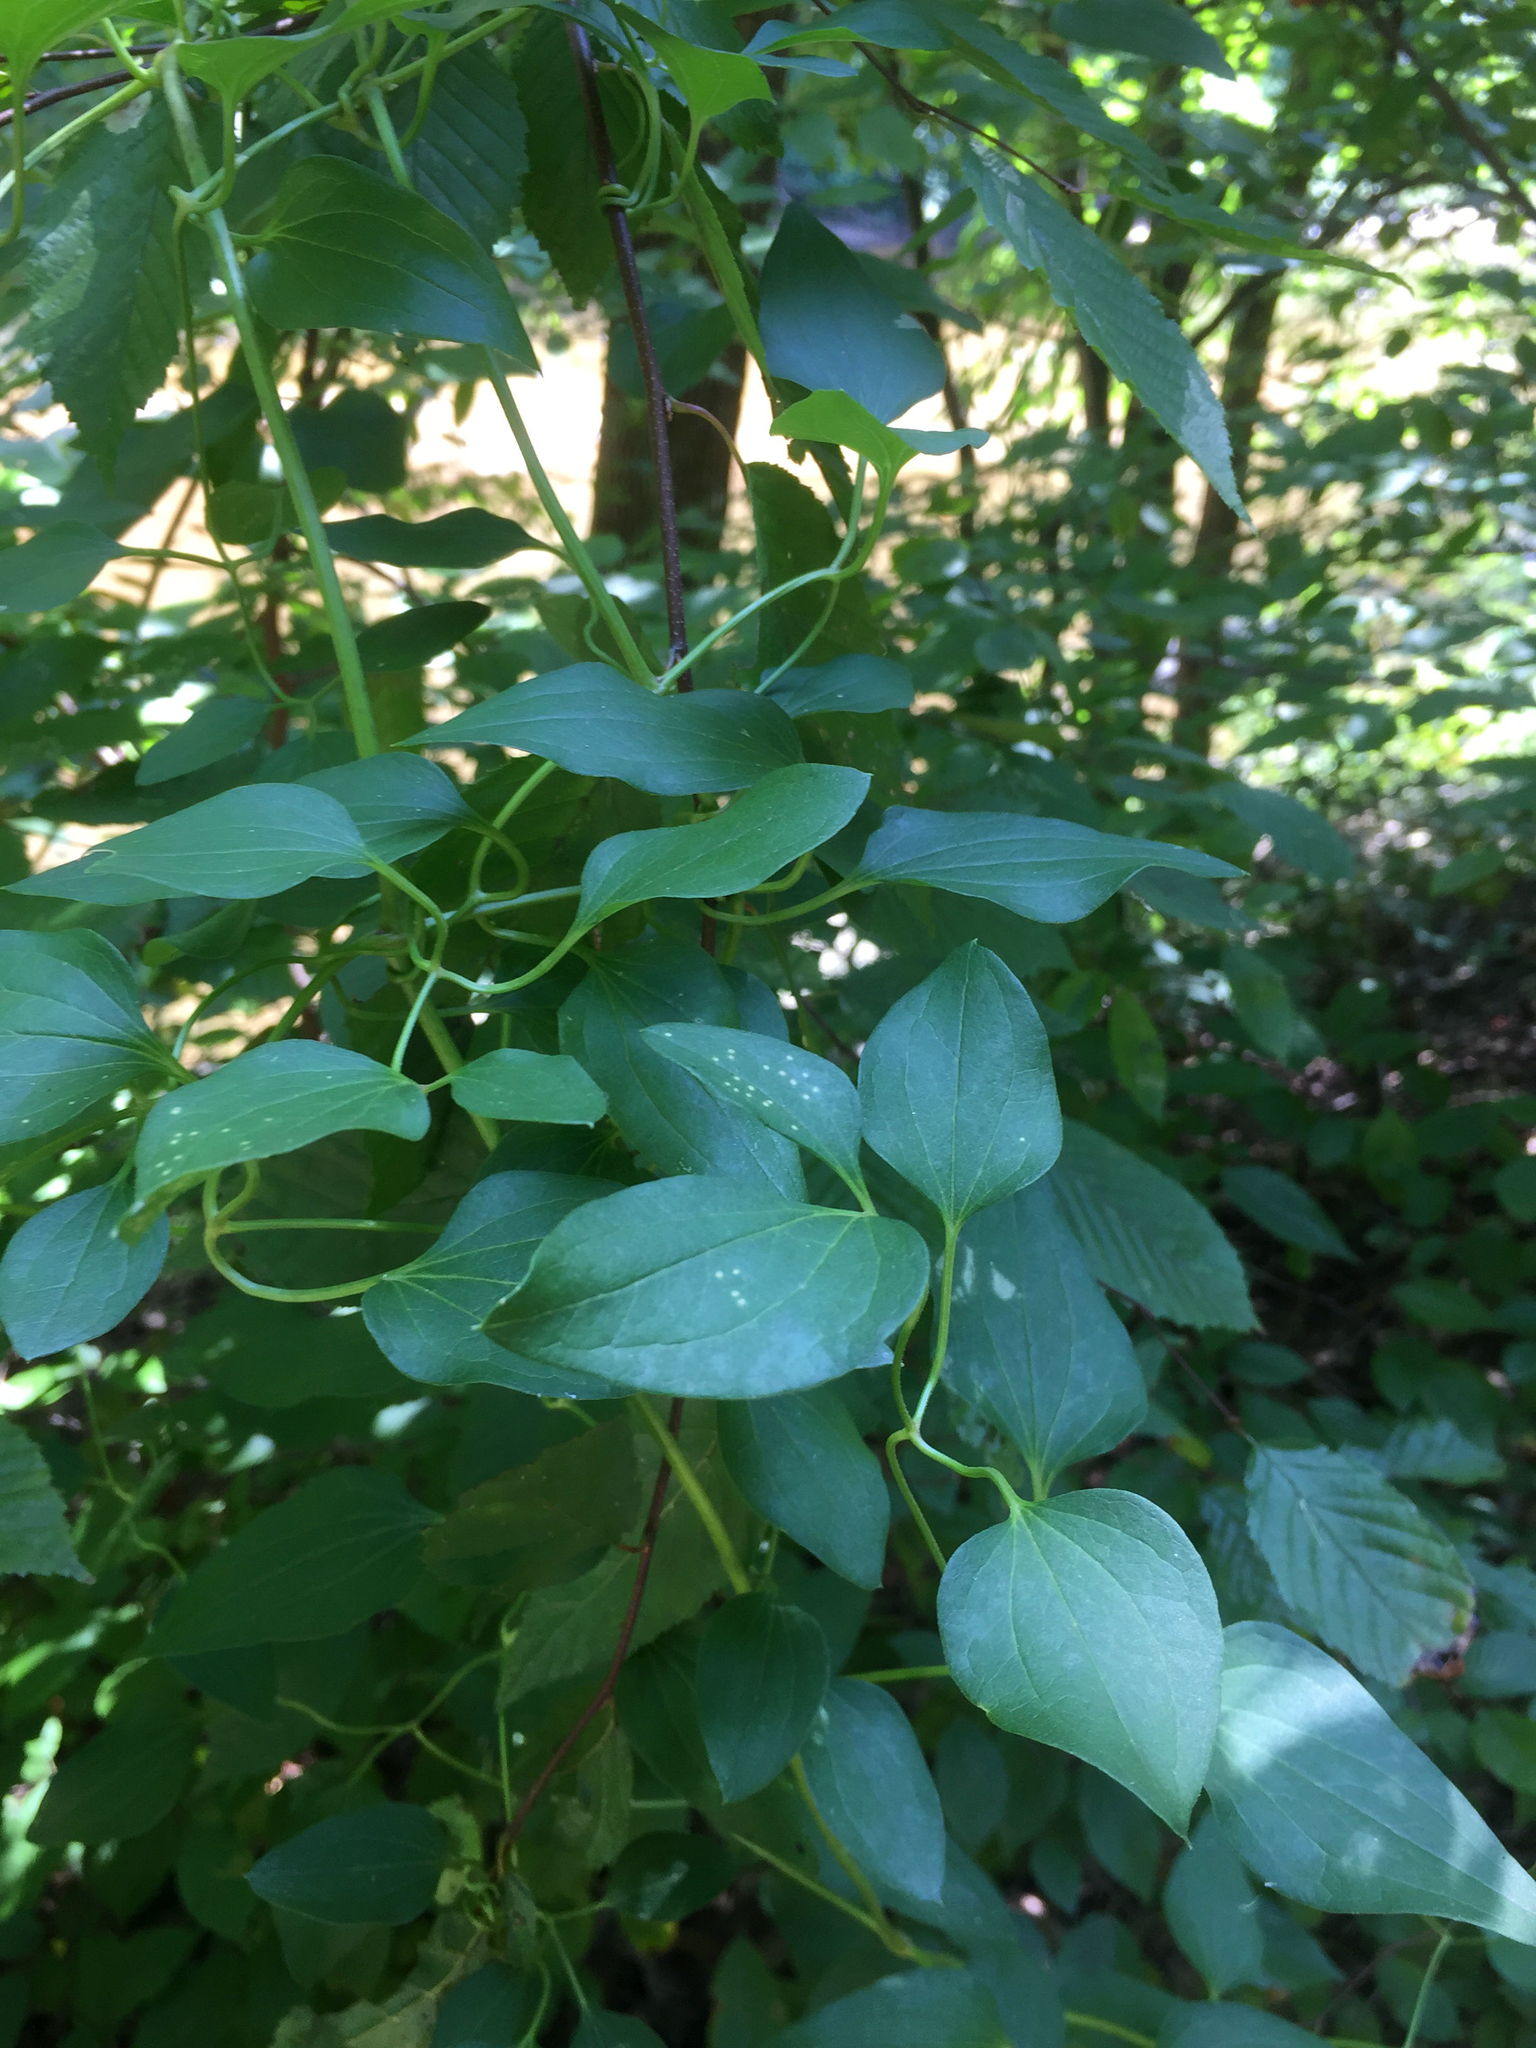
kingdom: Plantae
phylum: Tracheophyta
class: Magnoliopsida
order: Ranunculales
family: Ranunculaceae
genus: Clematis
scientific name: Clematis terniflora
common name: Sweet autumn clematis
